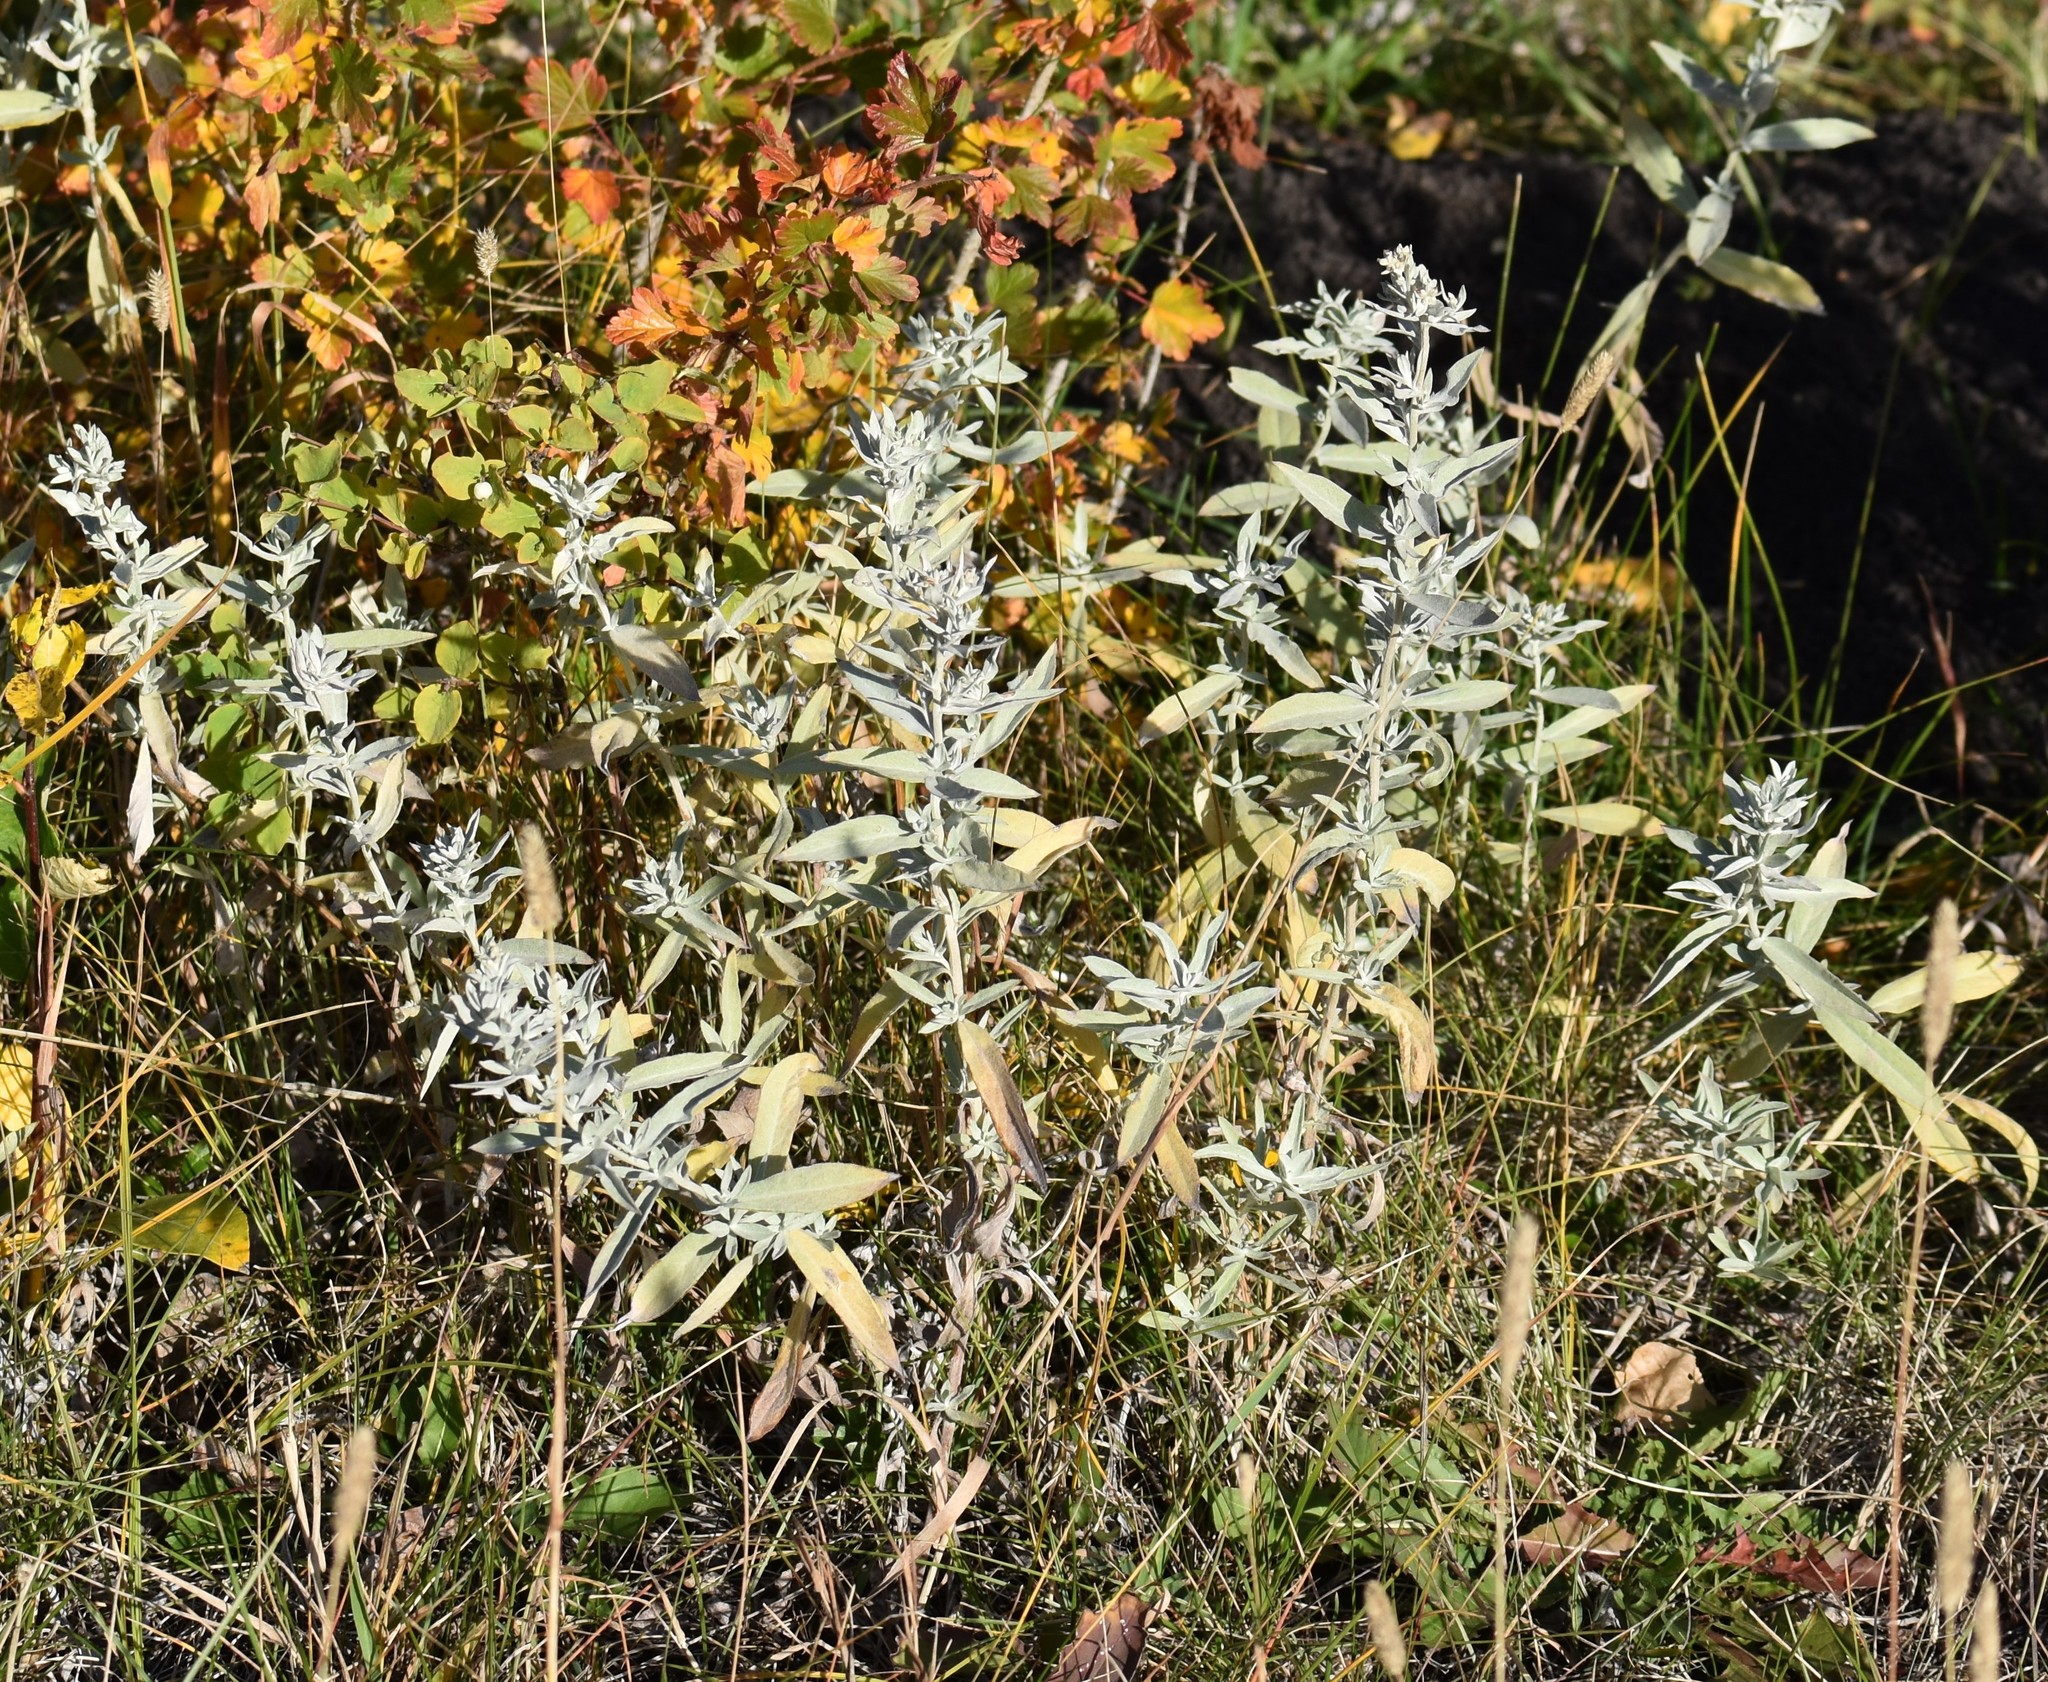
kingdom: Plantae
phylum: Tracheophyta
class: Magnoliopsida
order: Asterales
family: Asteraceae
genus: Artemisia
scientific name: Artemisia ludoviciana
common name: Western mugwort
